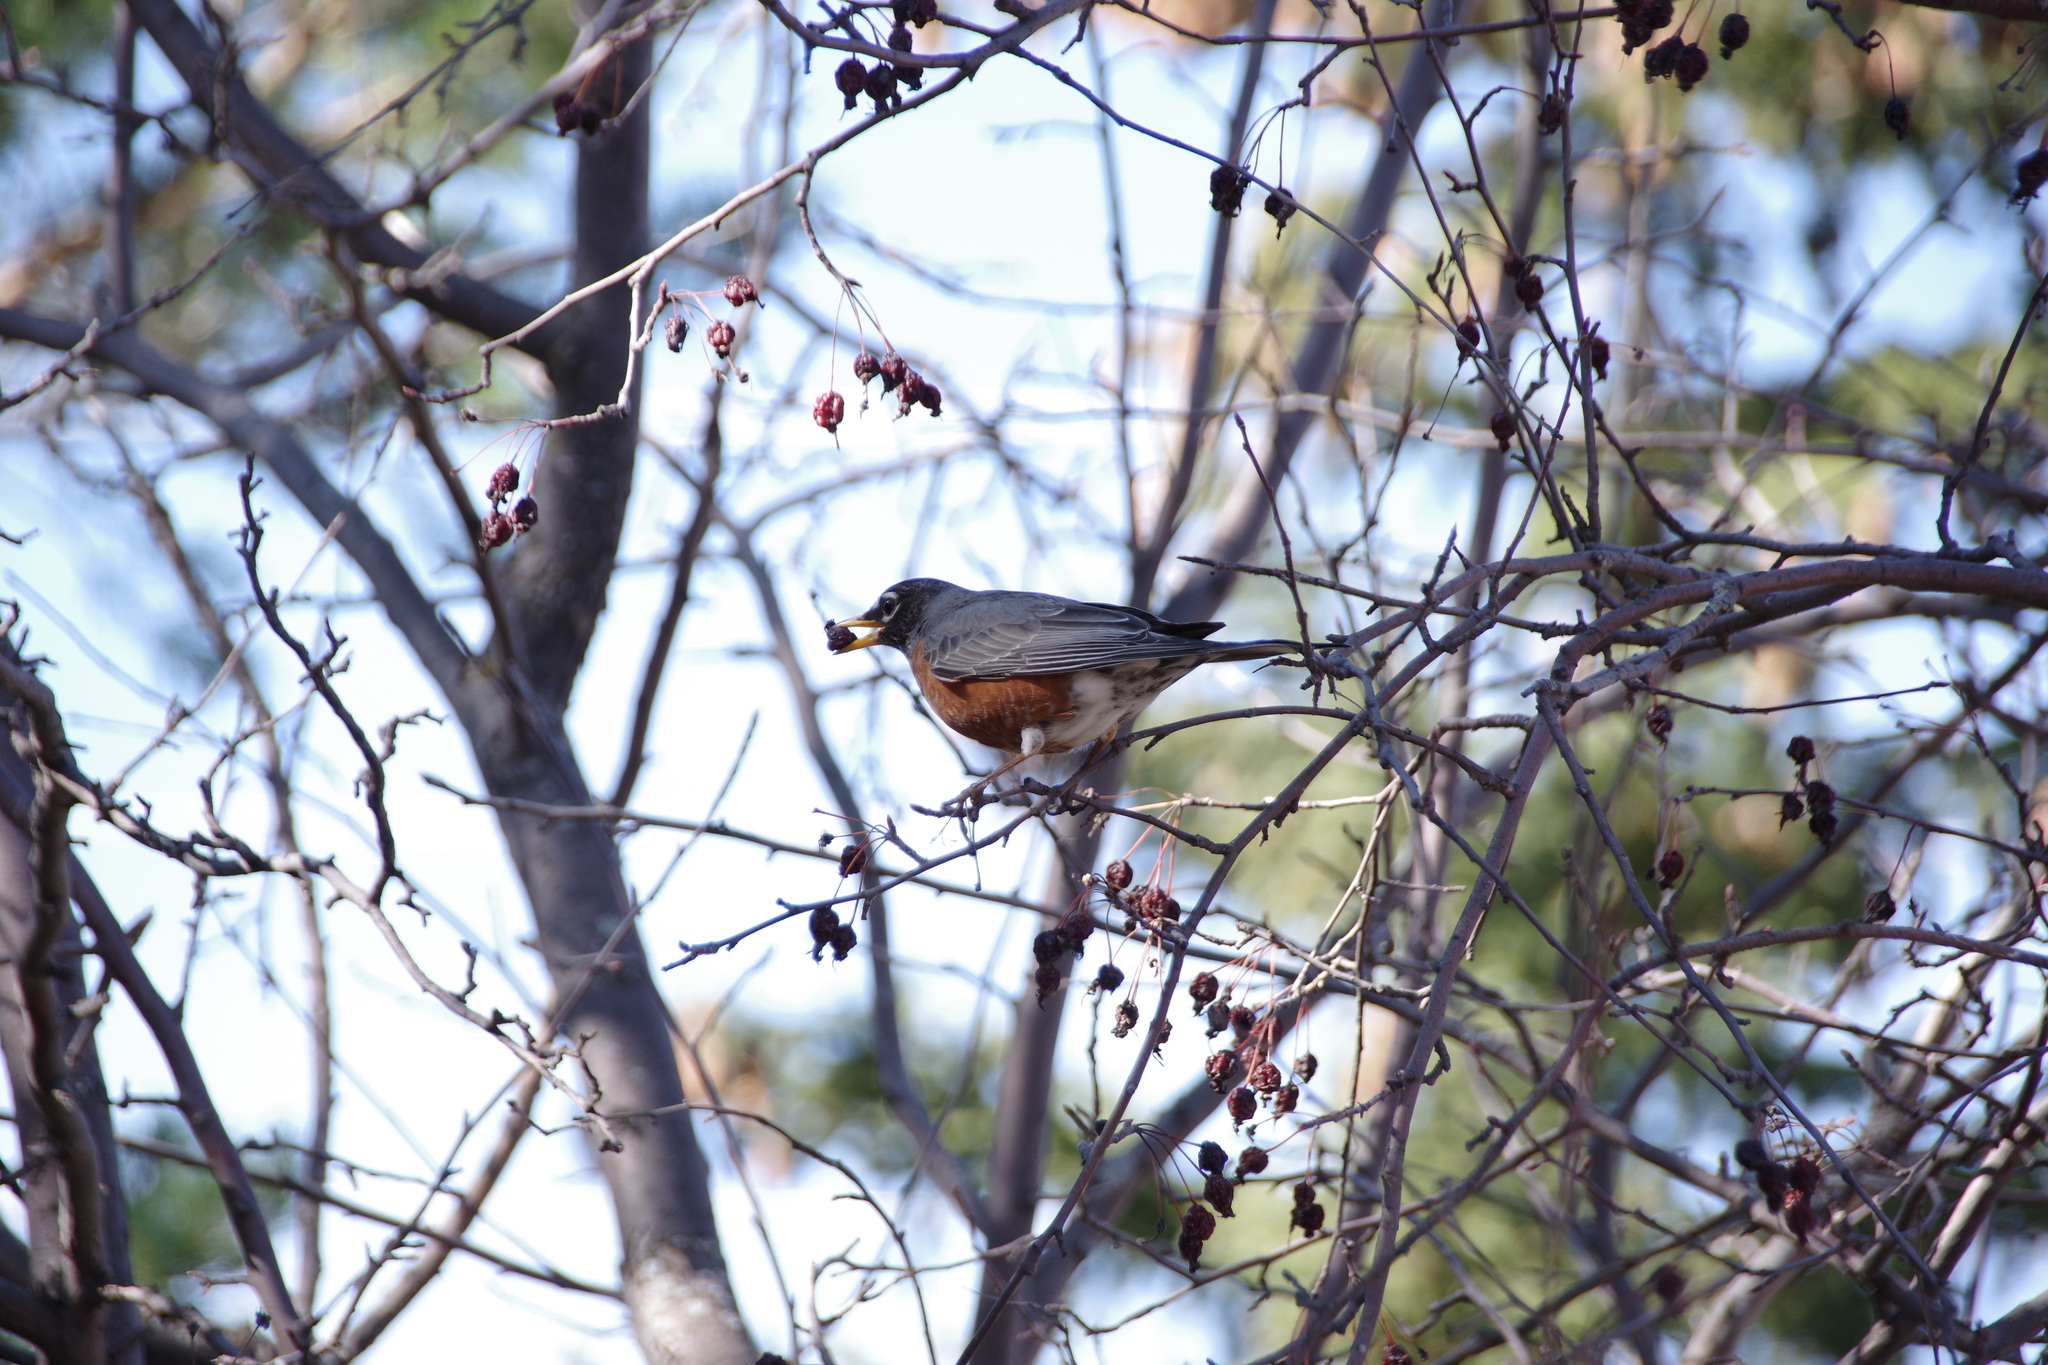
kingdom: Animalia
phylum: Chordata
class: Aves
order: Passeriformes
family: Turdidae
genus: Turdus
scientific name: Turdus migratorius
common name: American robin
